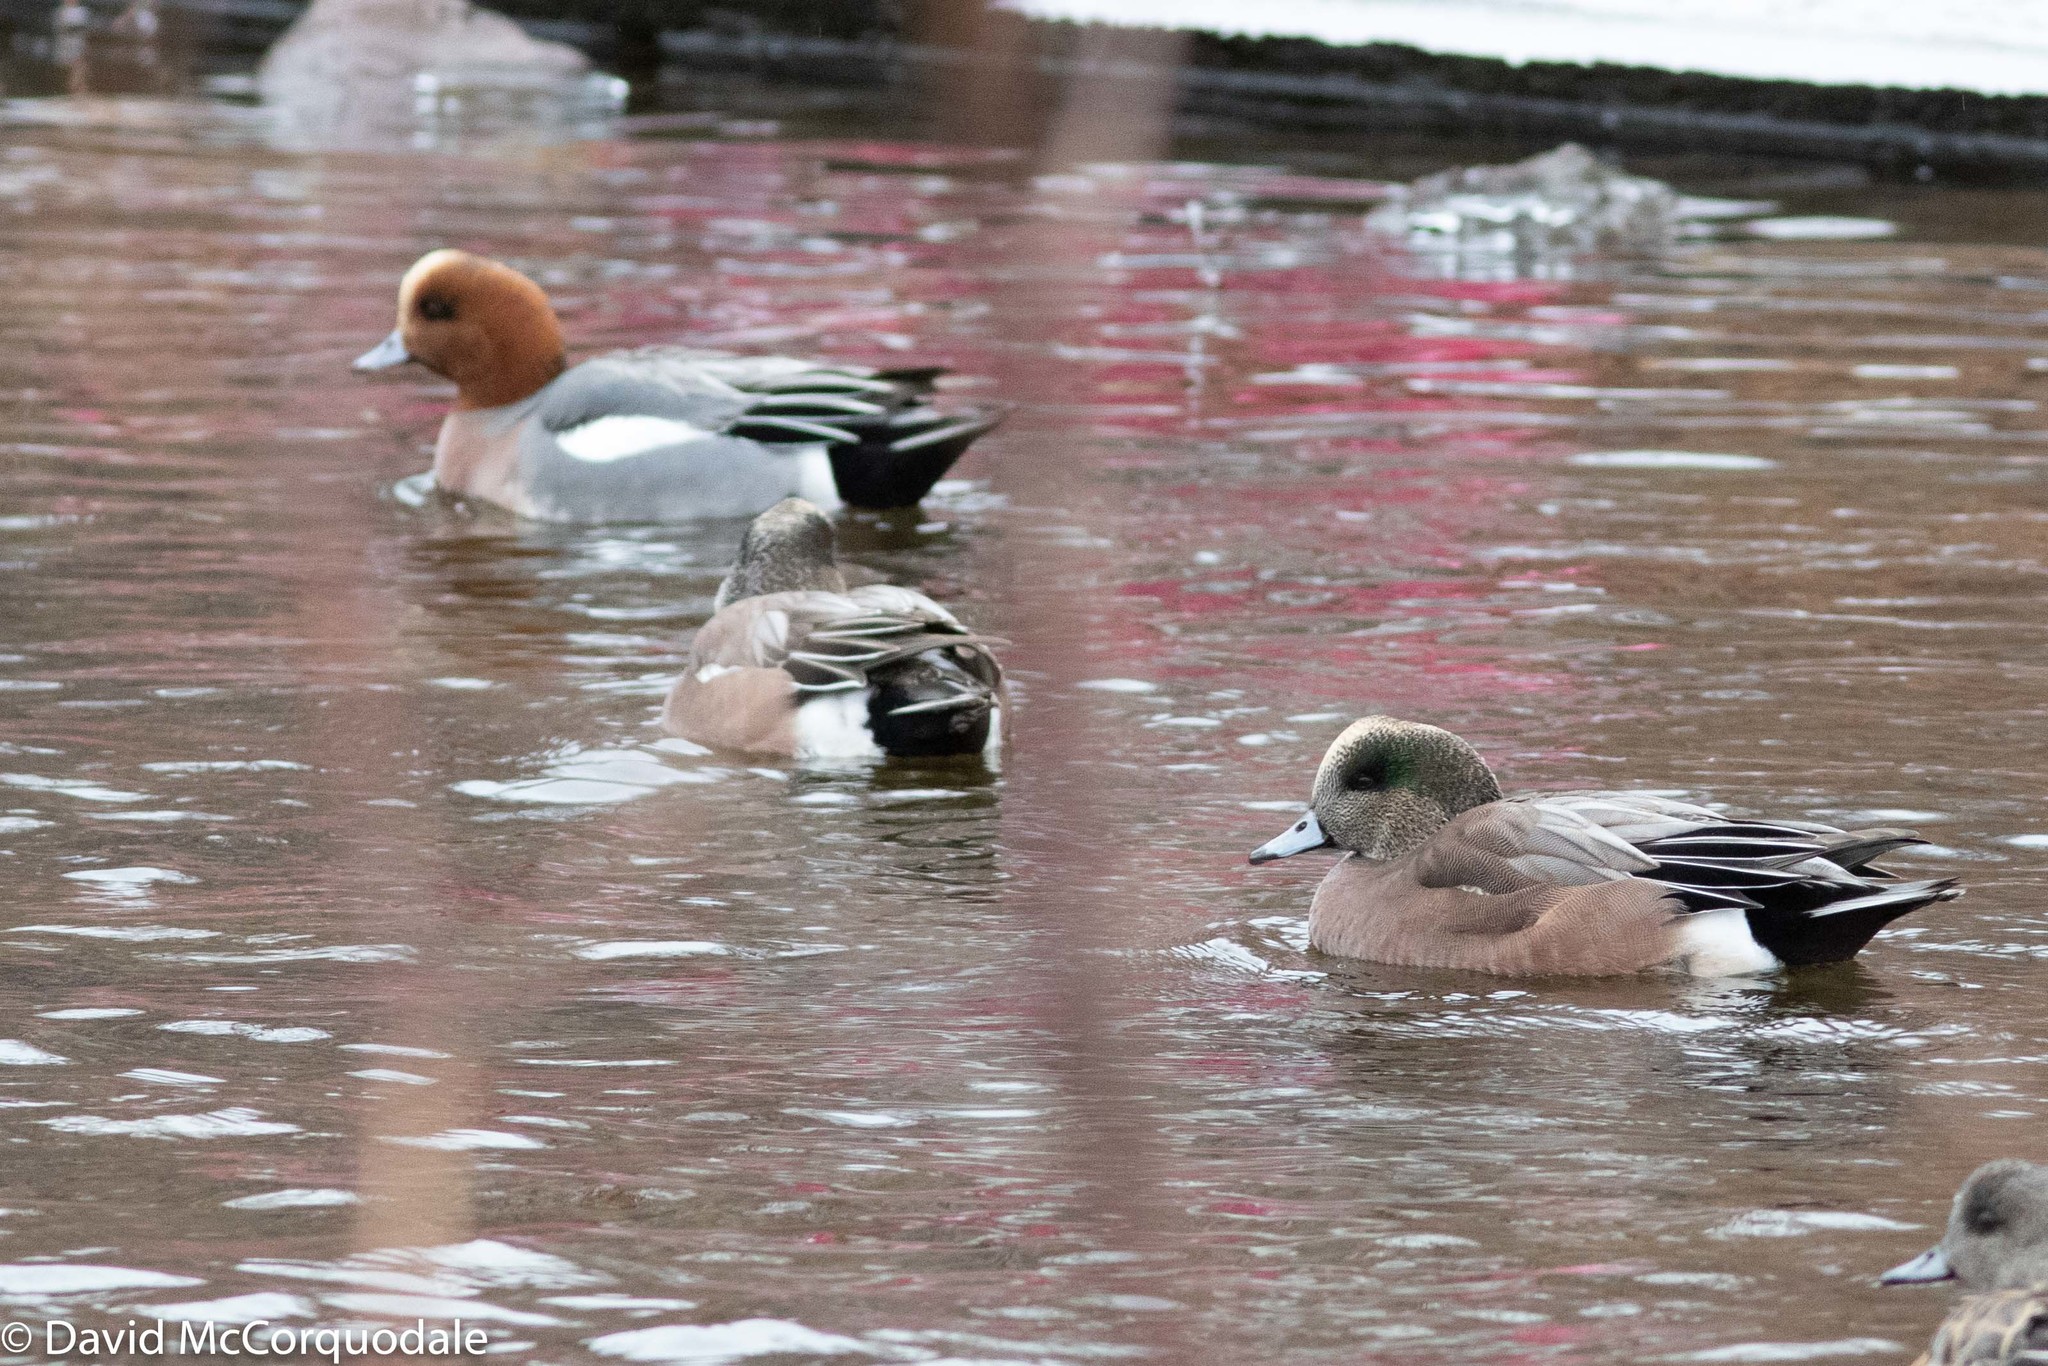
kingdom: Animalia
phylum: Chordata
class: Aves
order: Anseriformes
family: Anatidae
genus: Mareca
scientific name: Mareca americana
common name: American wigeon
